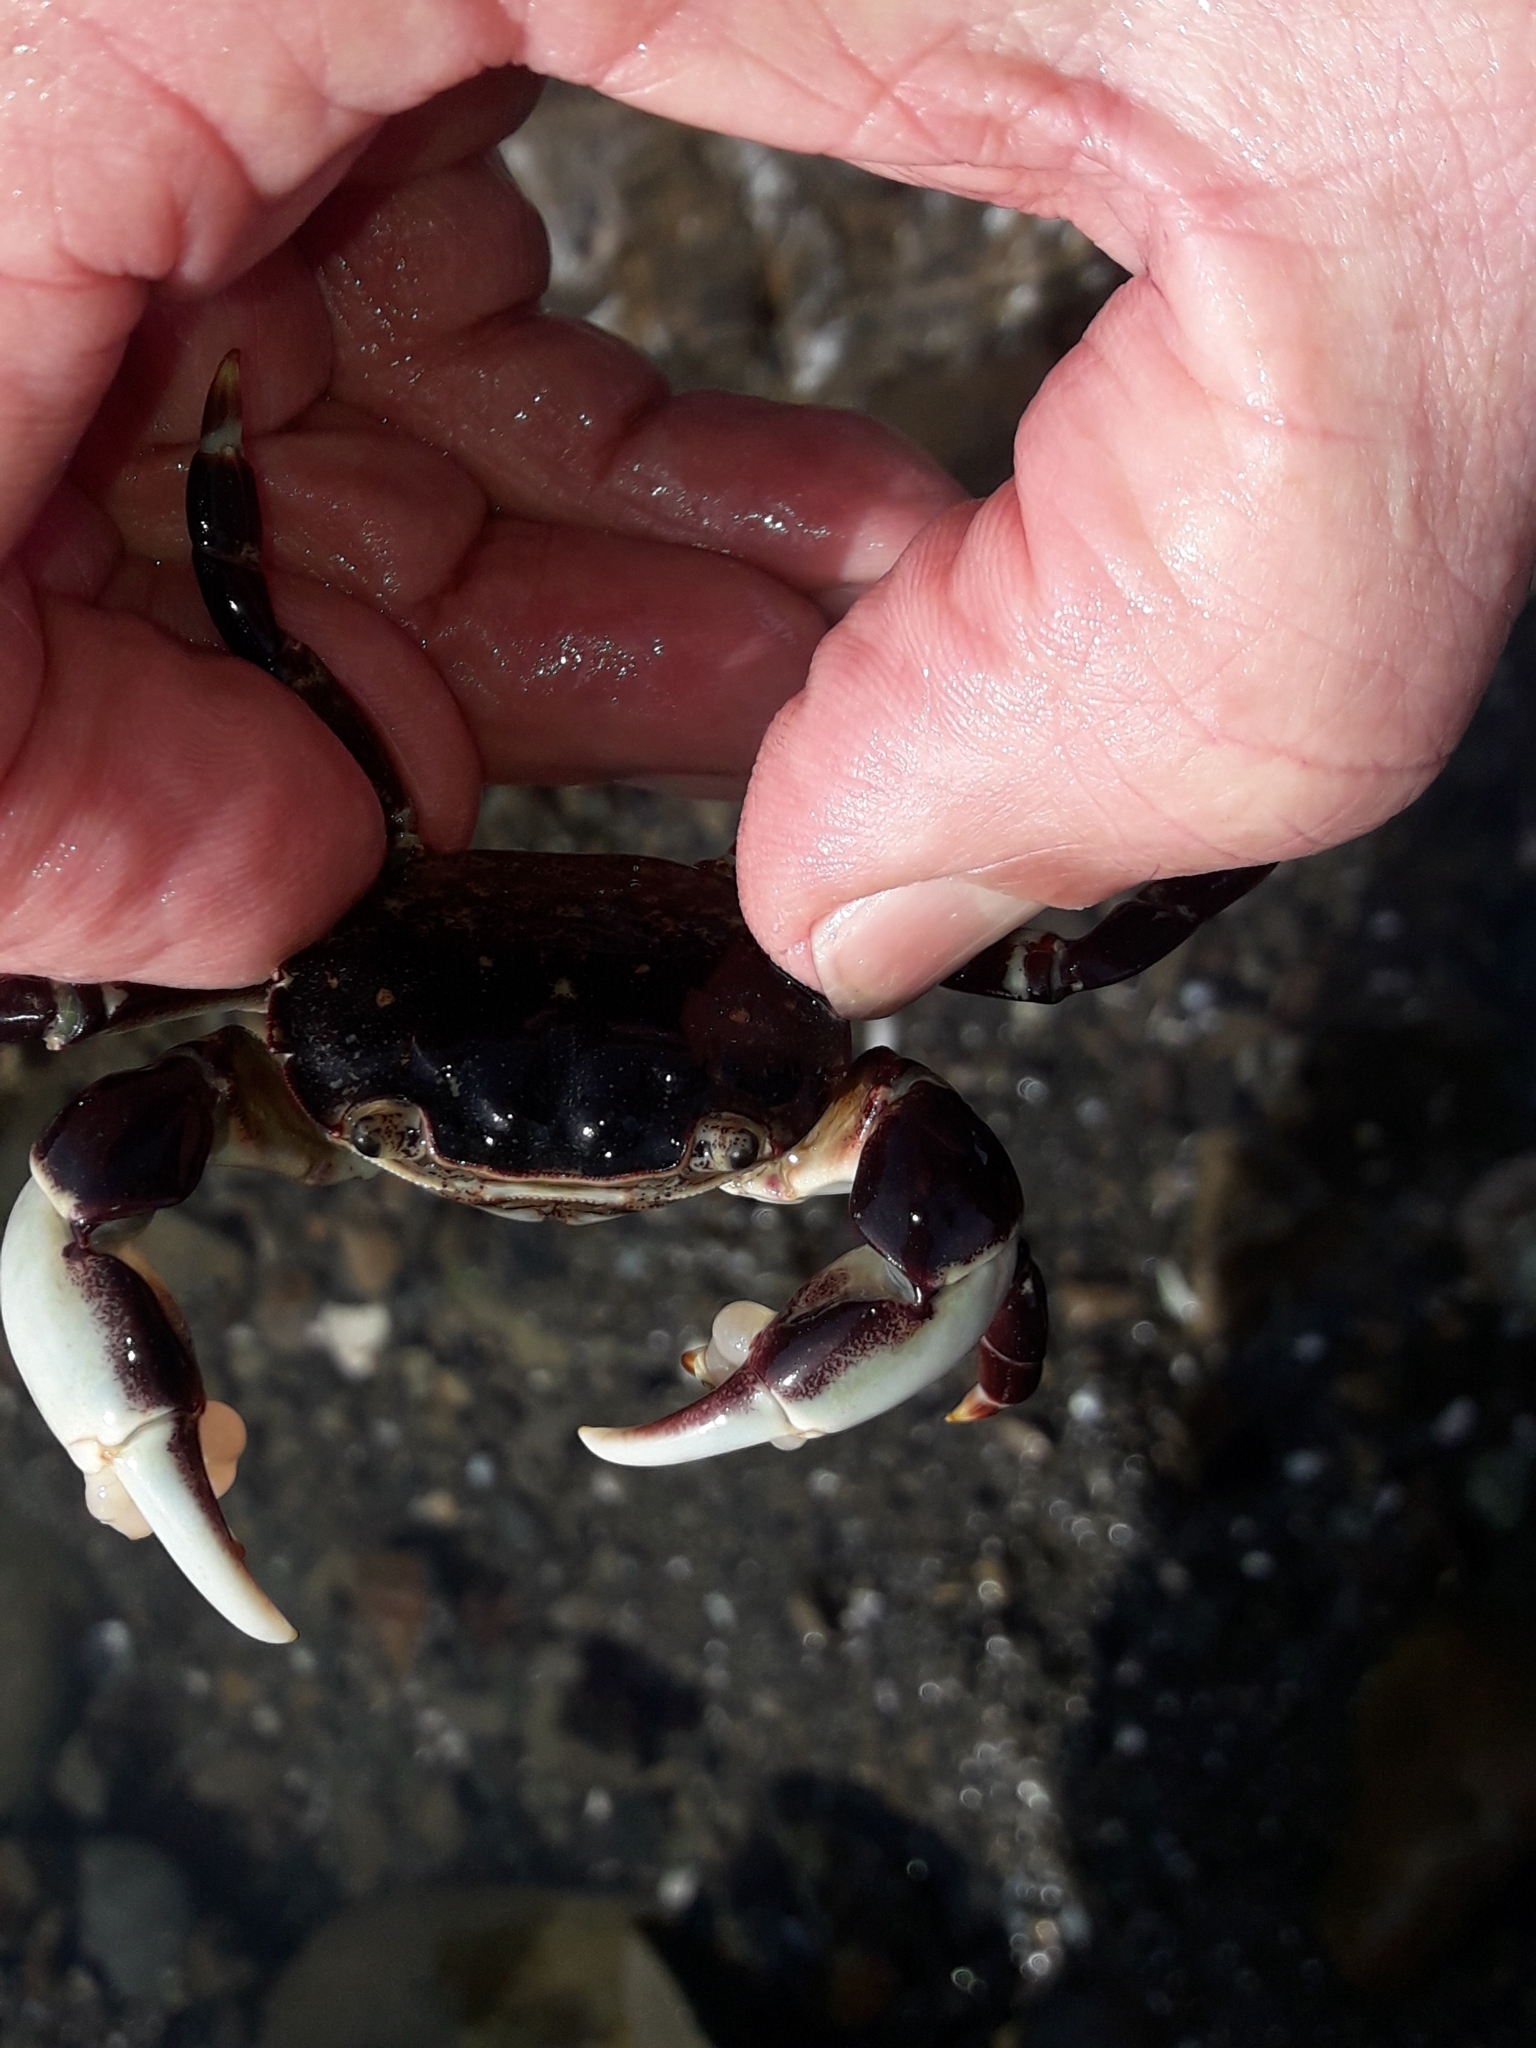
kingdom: Animalia
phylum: Arthropoda
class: Malacostraca
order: Decapoda
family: Varunidae
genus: Hemigrapsus
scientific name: Hemigrapsus sexdentatus
